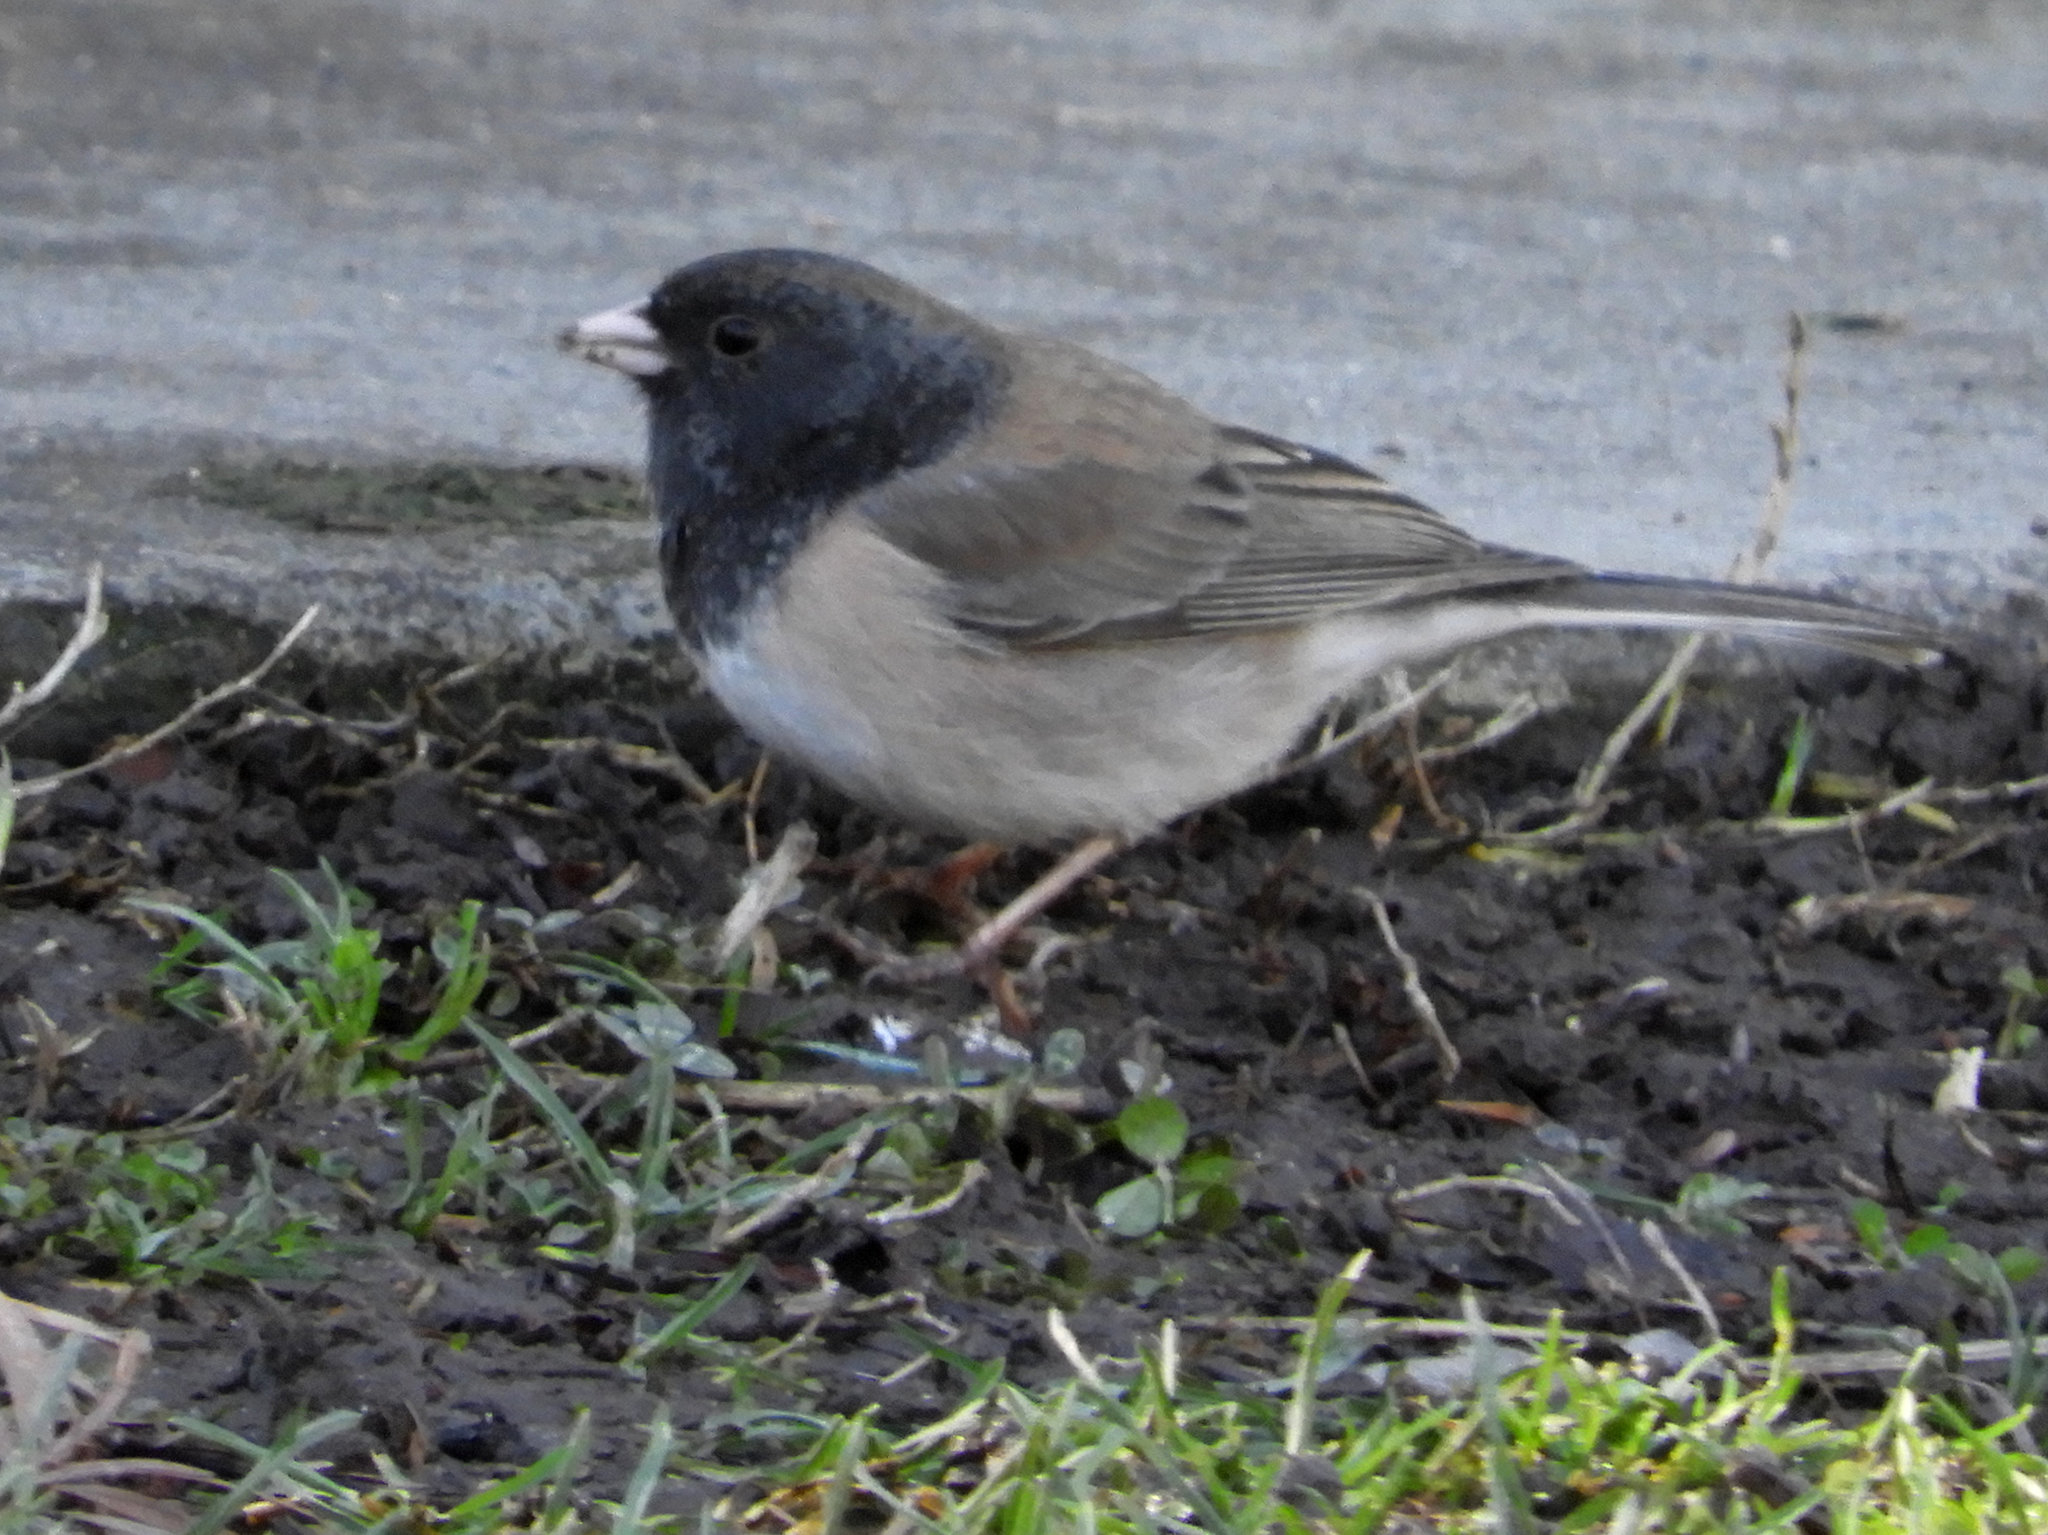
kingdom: Animalia
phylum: Chordata
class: Aves
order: Passeriformes
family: Passerellidae
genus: Junco
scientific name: Junco hyemalis
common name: Dark-eyed junco
